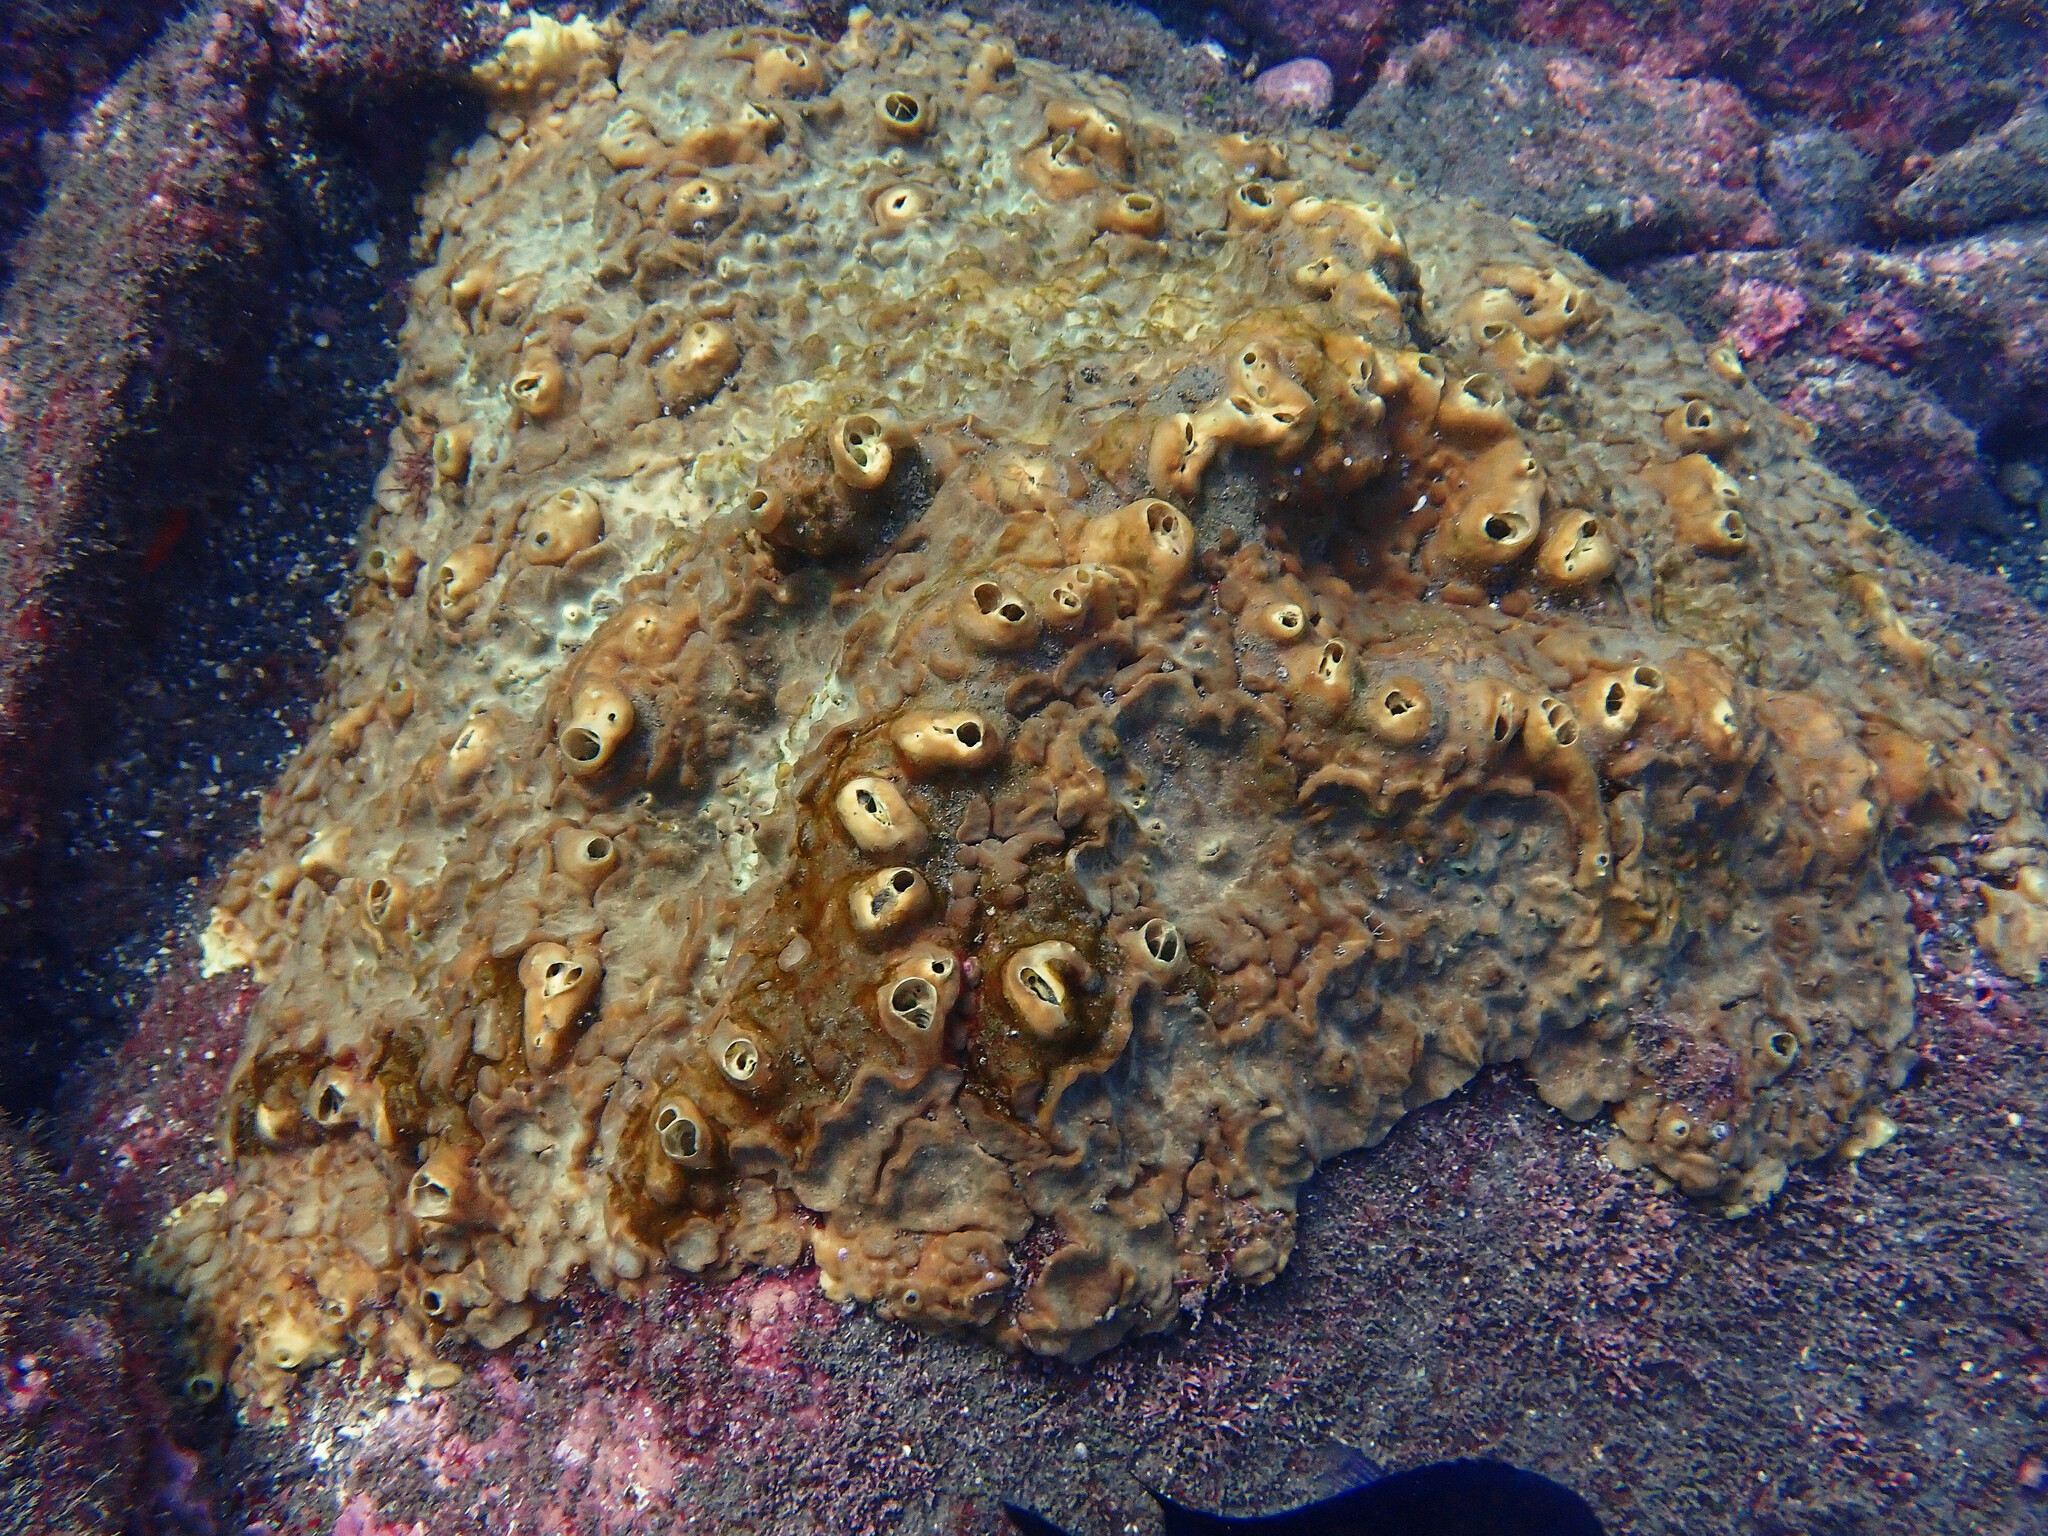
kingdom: Animalia
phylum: Porifera
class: Demospongiae
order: Clionaida
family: Clionaidae
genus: Cliona
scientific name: Cliona viridis
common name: Green boring sponge
